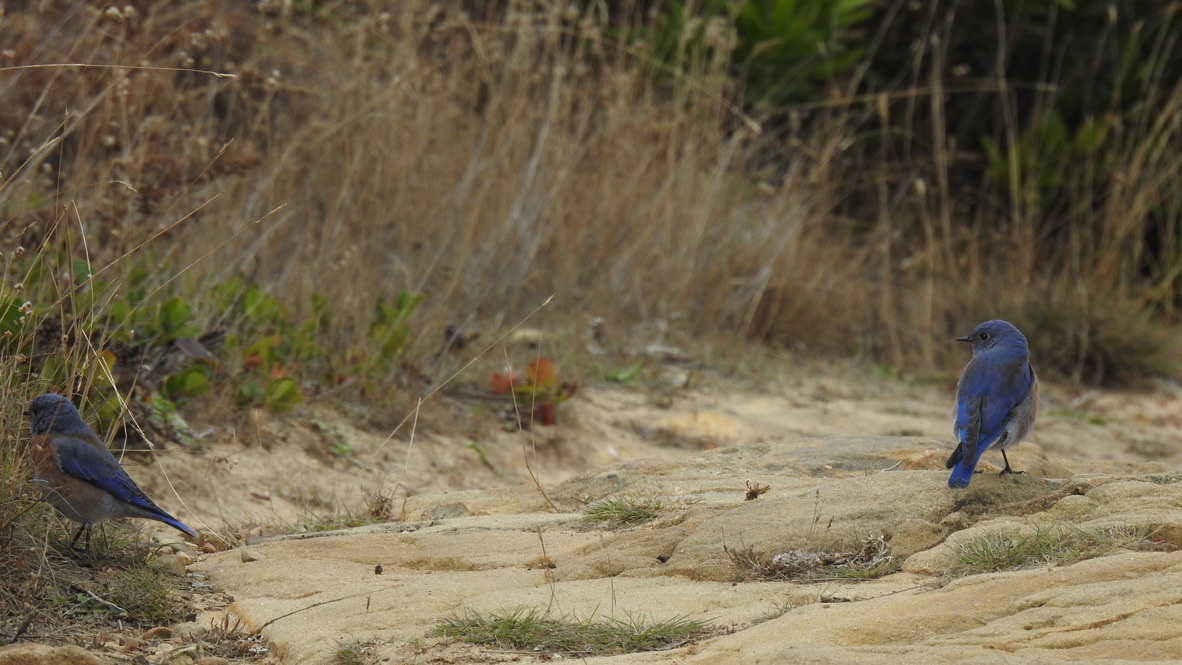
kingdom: Animalia
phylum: Chordata
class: Aves
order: Passeriformes
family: Turdidae
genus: Sialia
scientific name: Sialia mexicana
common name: Western bluebird
